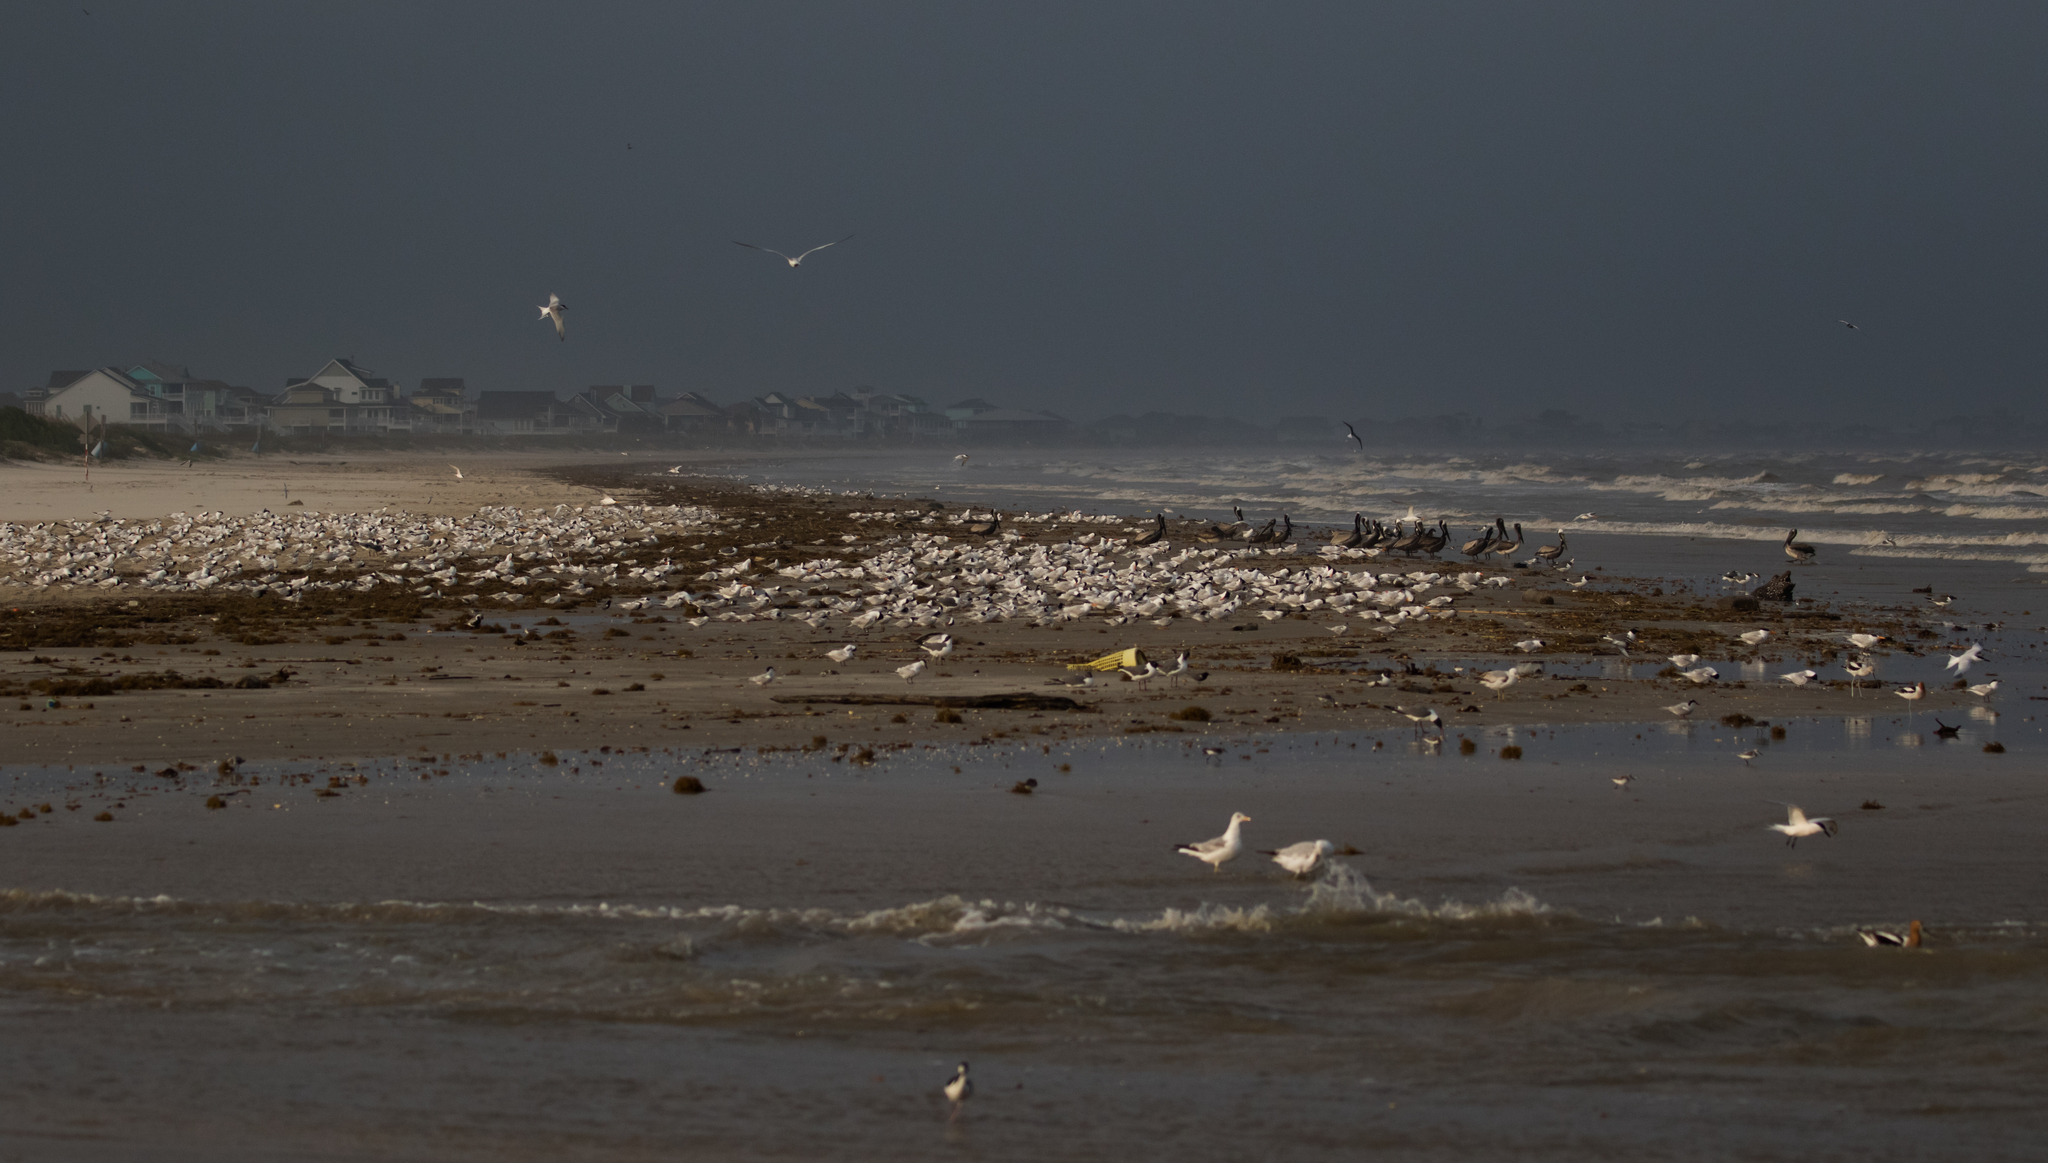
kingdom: Animalia
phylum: Chordata
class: Aves
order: Charadriiformes
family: Laridae
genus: Thalasseus
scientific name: Thalasseus maximus
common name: Royal tern
